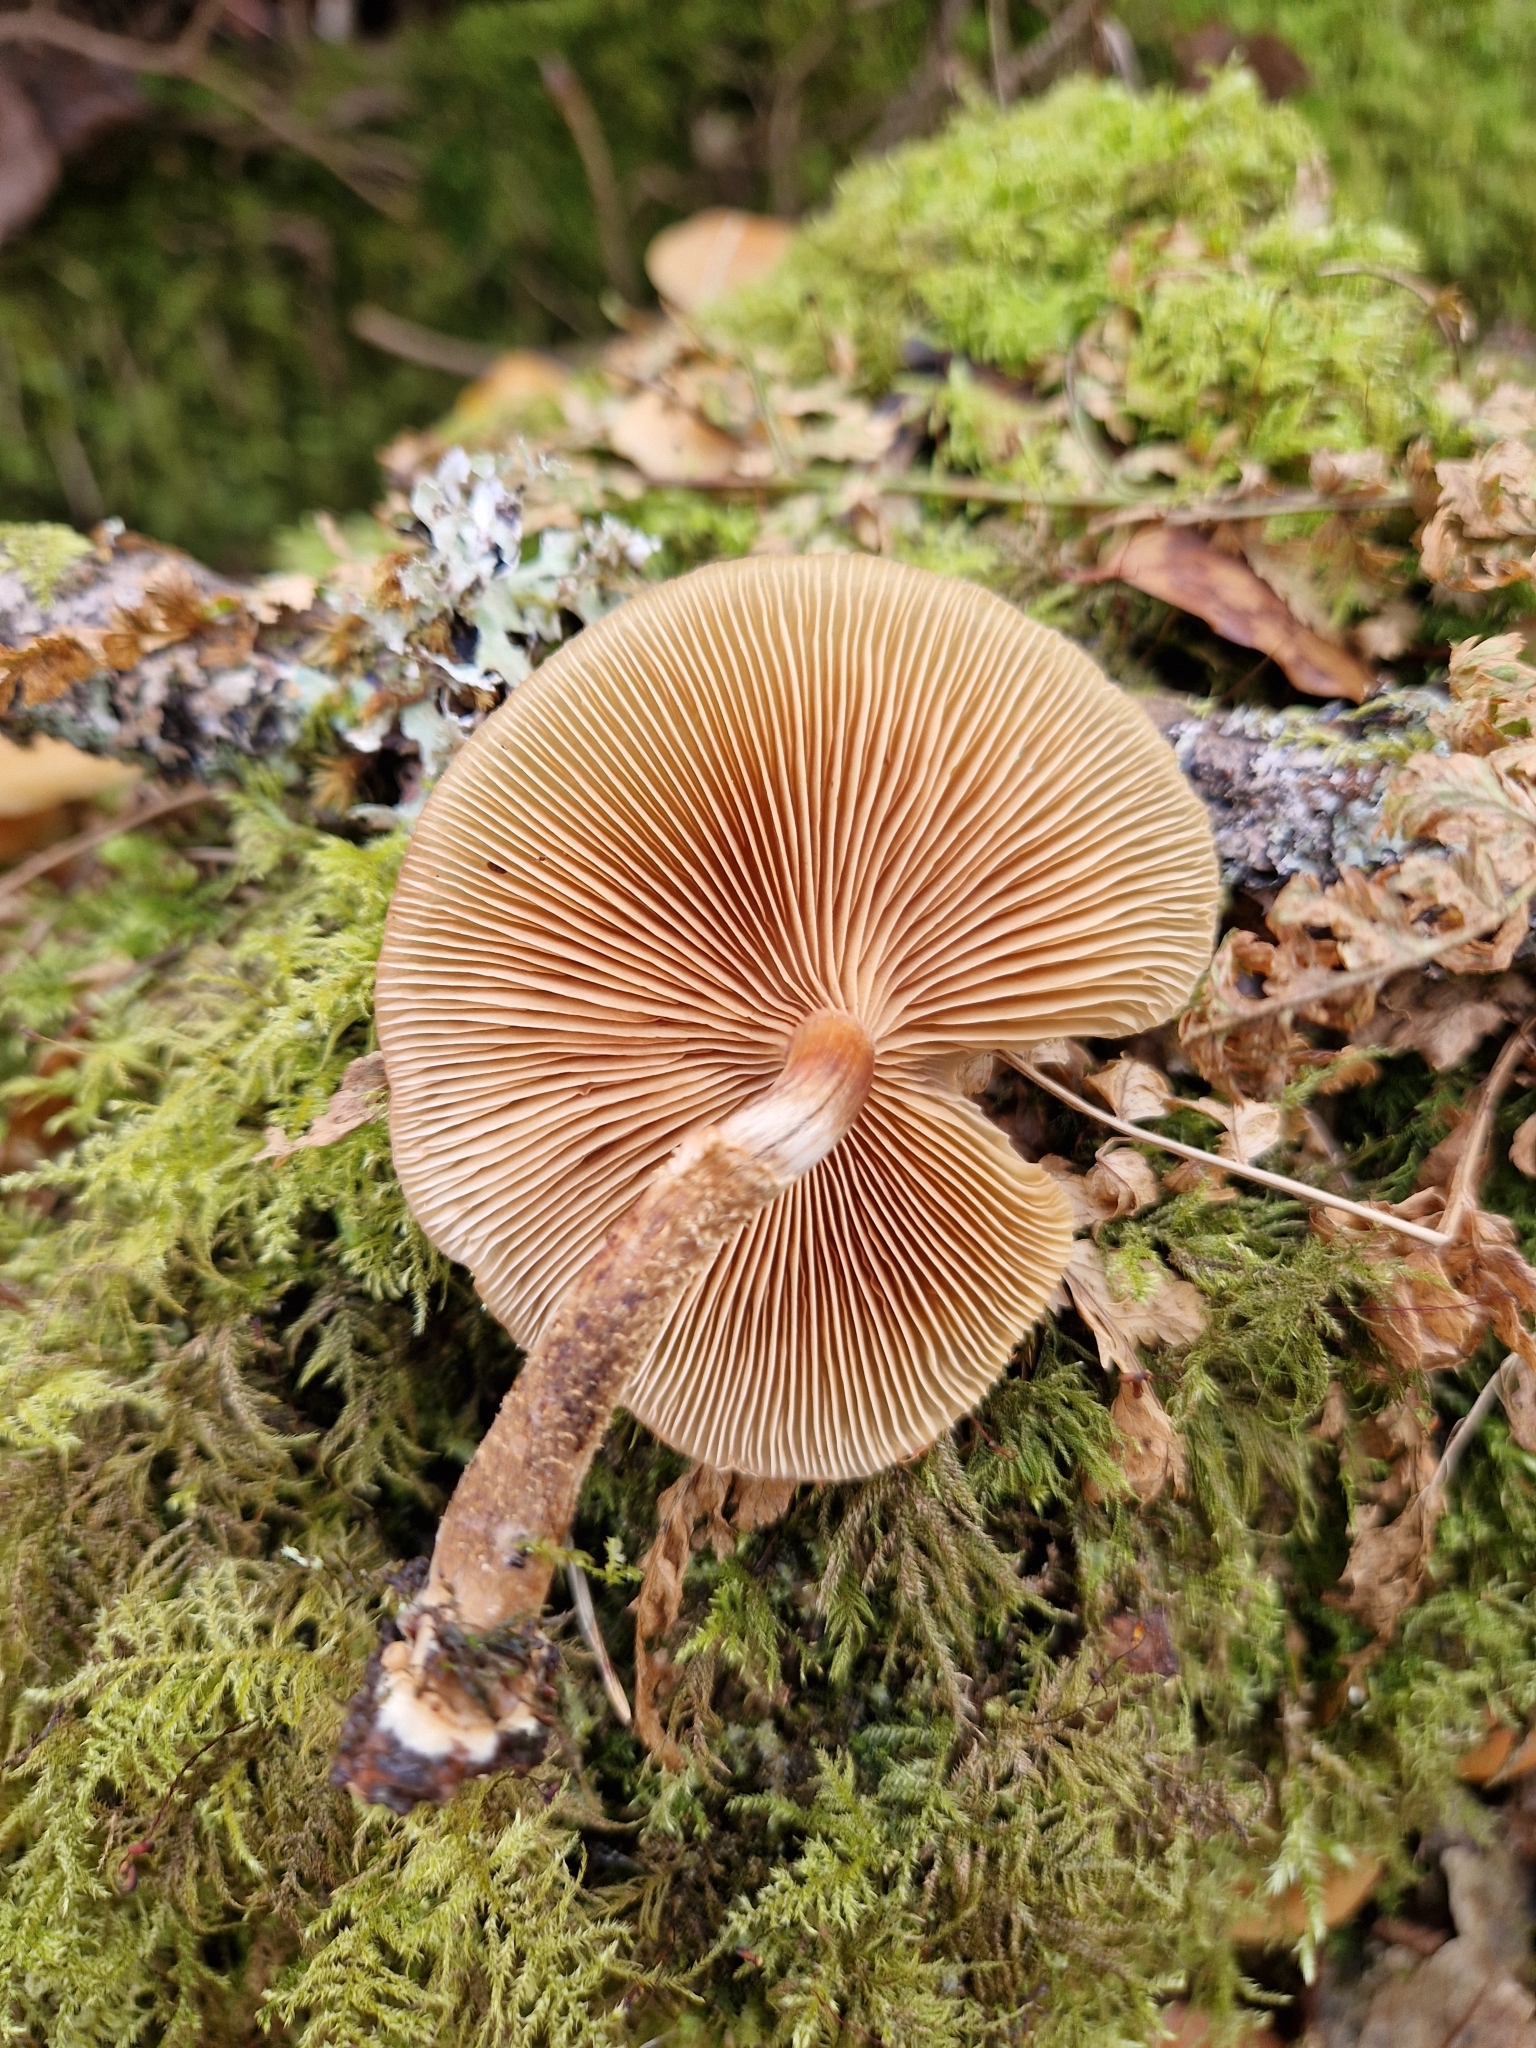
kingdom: Fungi
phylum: Basidiomycota
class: Agaricomycetes
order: Agaricales
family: Strophariaceae
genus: Kuehneromyces
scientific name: Kuehneromyces mutabilis
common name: Sheathed woodtuft
